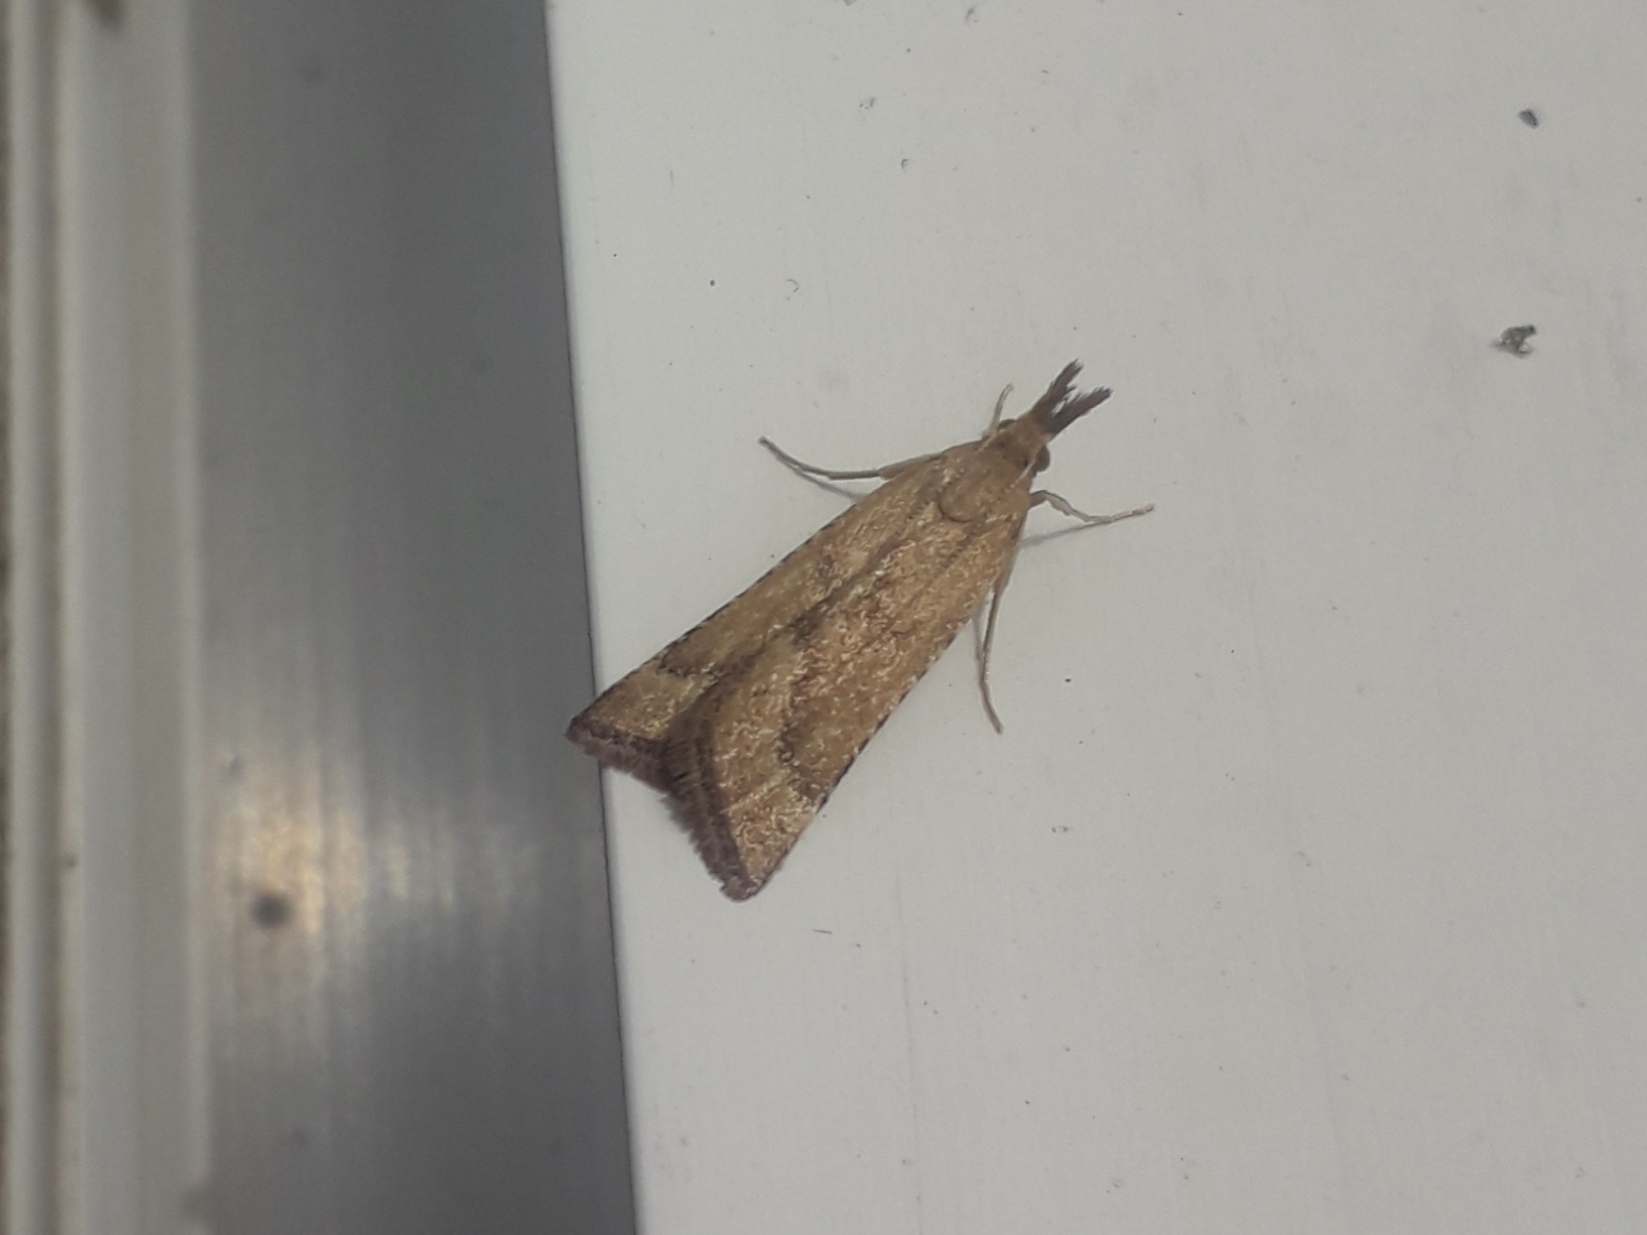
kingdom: Animalia
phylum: Arthropoda
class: Insecta
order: Lepidoptera
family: Pyralidae
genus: Synaphe
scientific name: Synaphe punctalis
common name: Long-legged tabby
